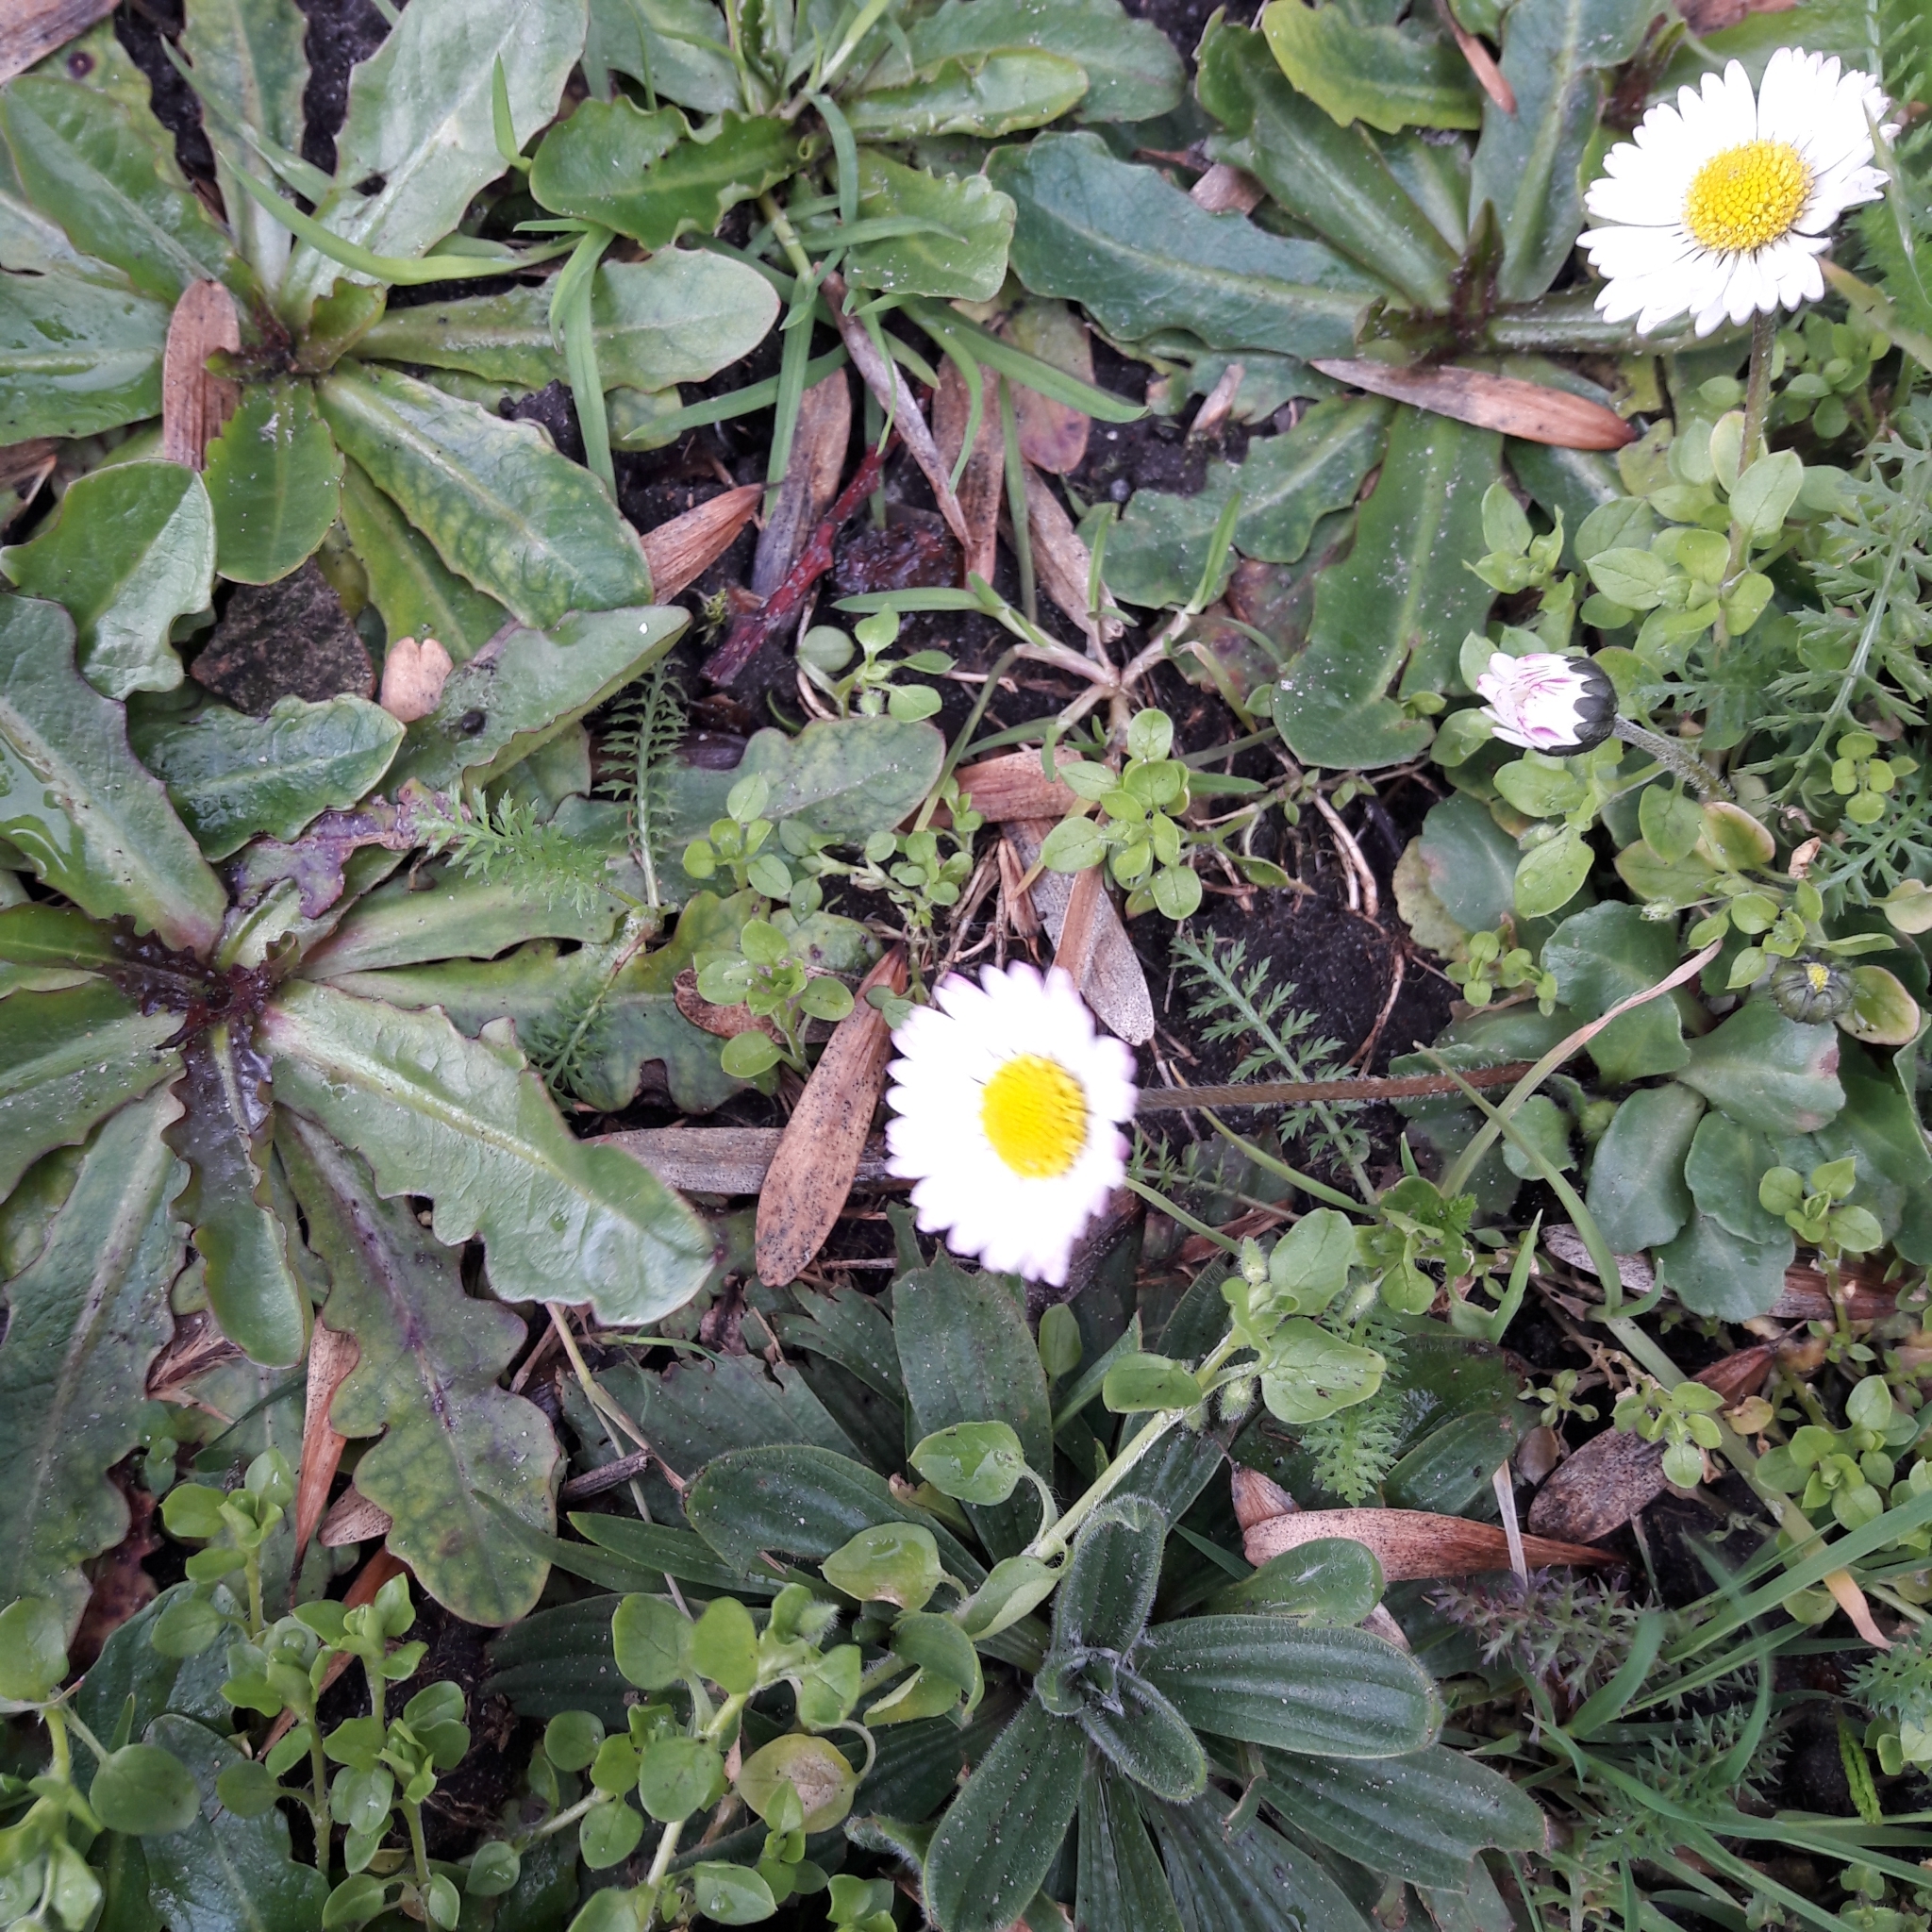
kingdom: Plantae
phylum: Tracheophyta
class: Magnoliopsida
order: Asterales
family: Asteraceae
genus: Bellis
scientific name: Bellis perennis
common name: Lawndaisy
